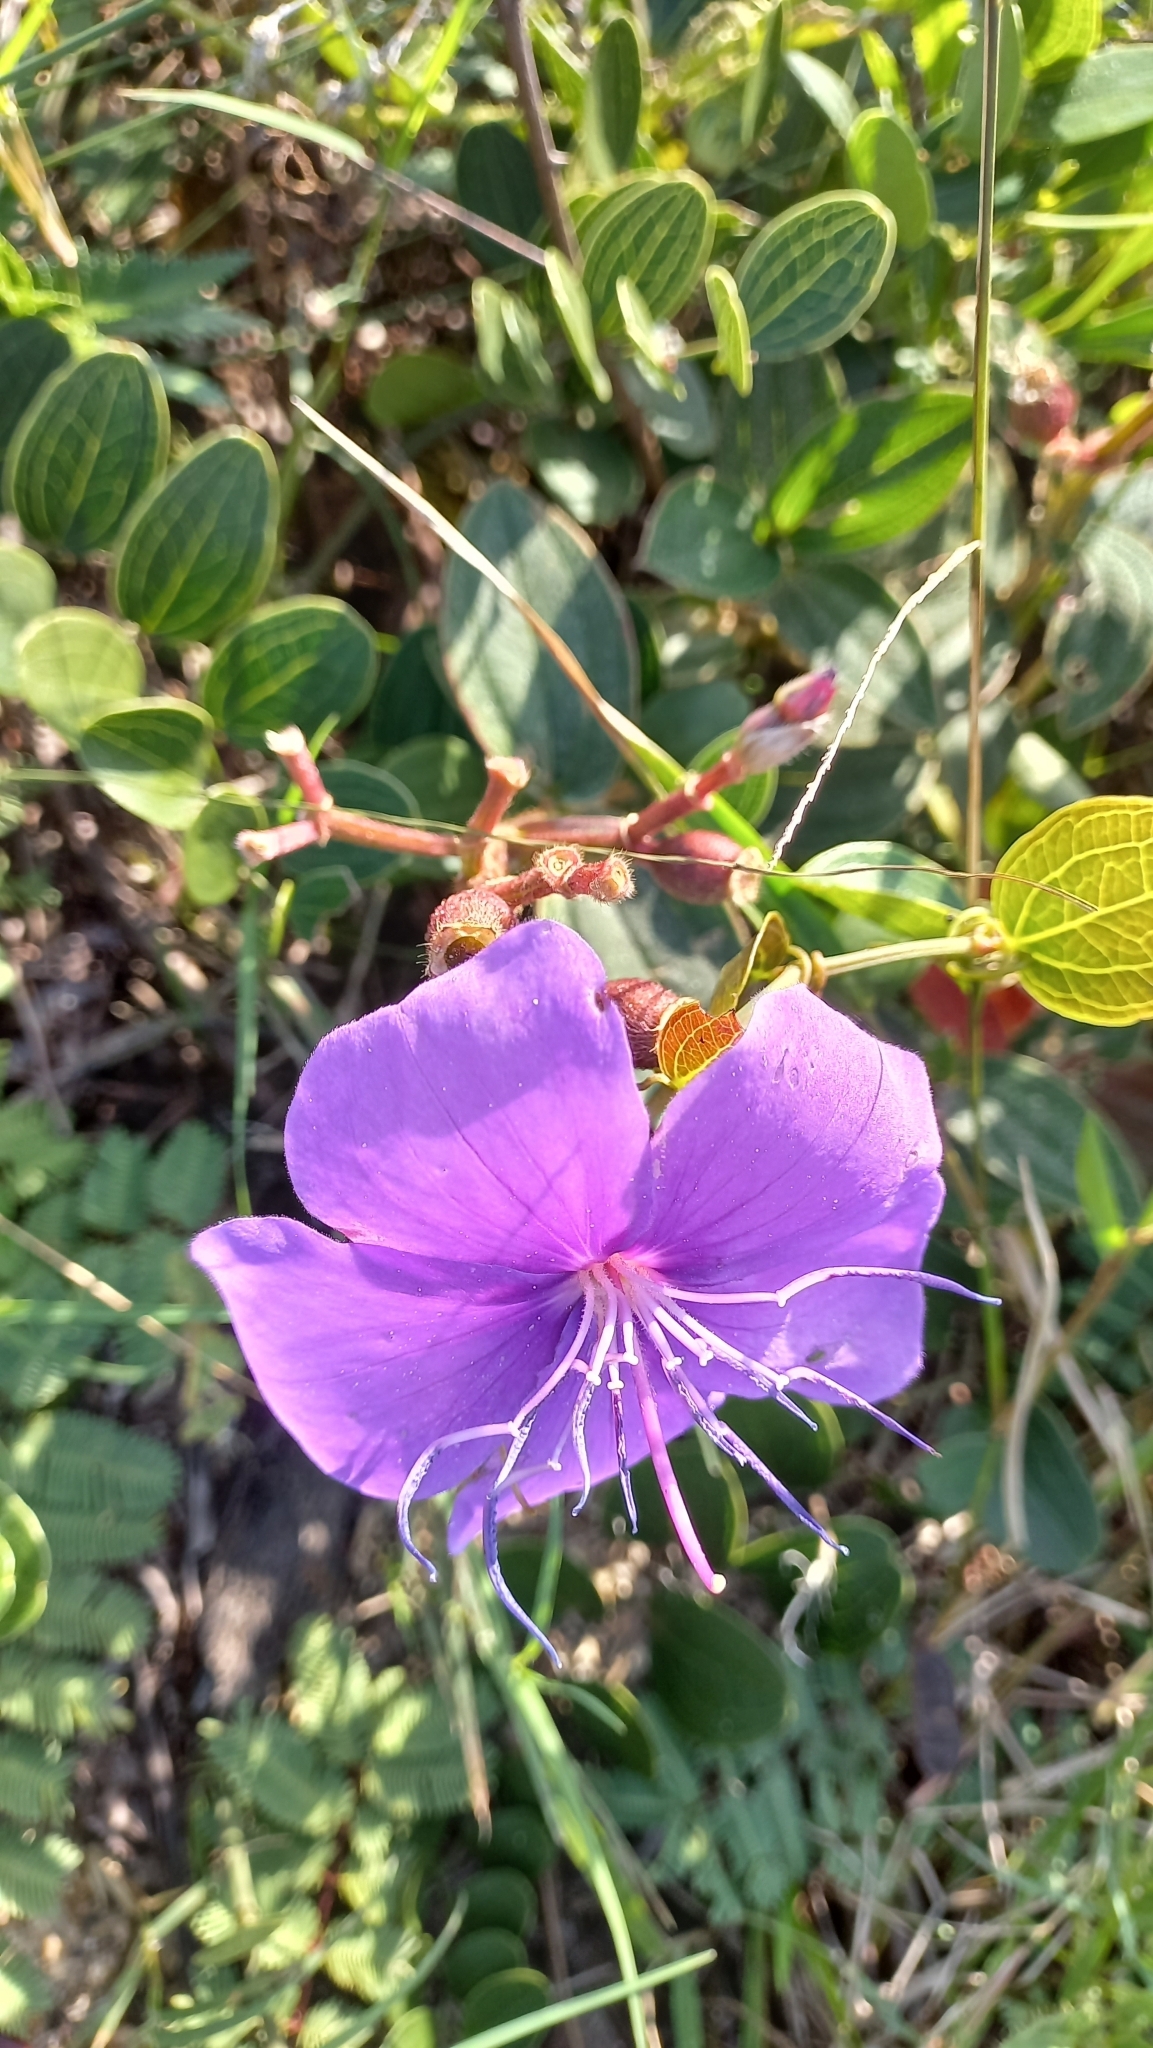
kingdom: Plantae
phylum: Tracheophyta
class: Magnoliopsida
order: Myrtales
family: Melastomataceae
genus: Pleroma
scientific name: Pleroma urvilleanum
